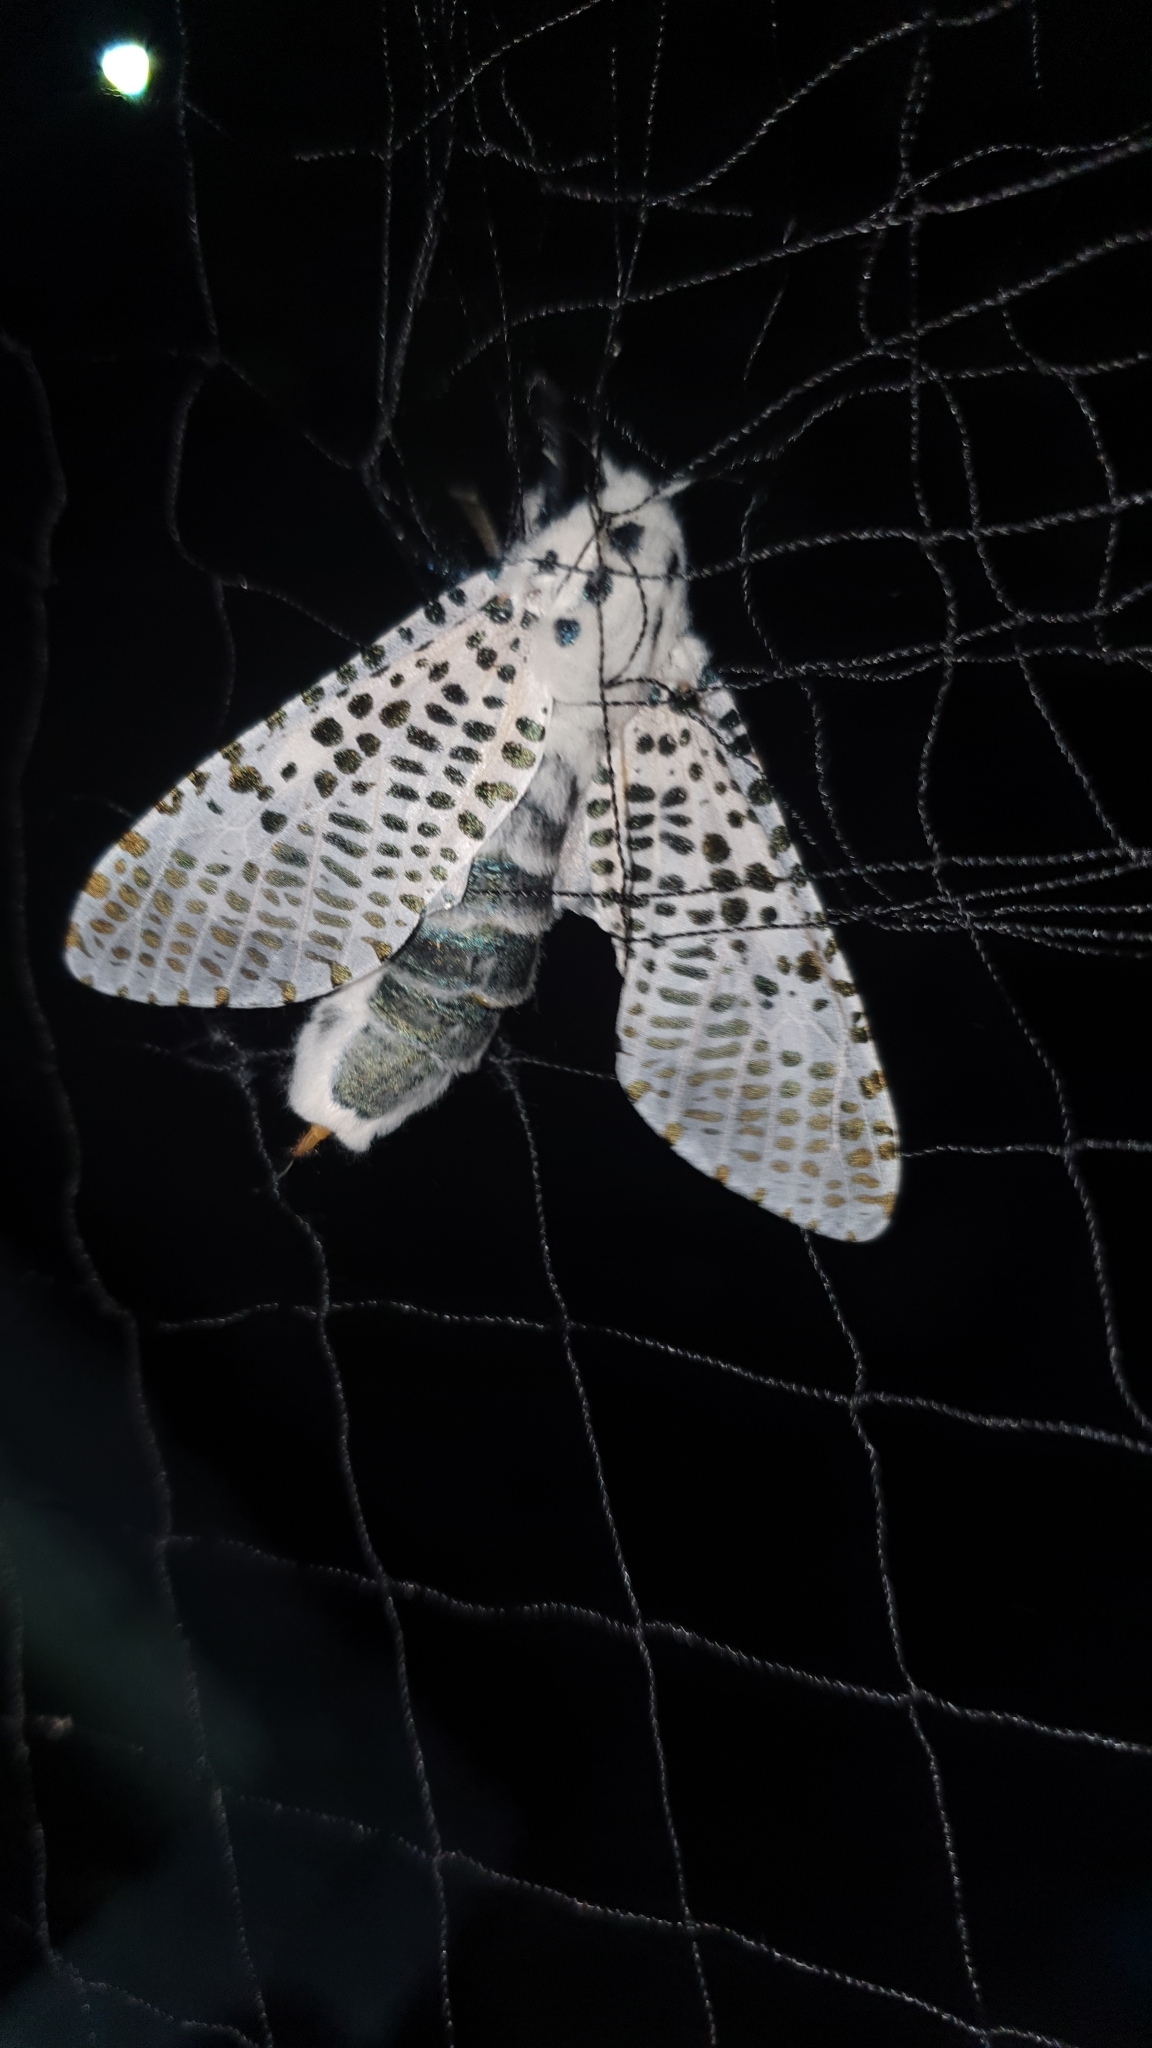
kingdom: Animalia
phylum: Arthropoda
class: Insecta
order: Lepidoptera
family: Cossidae
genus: Zeuzera
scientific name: Zeuzera pyrina
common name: Leopard moth
